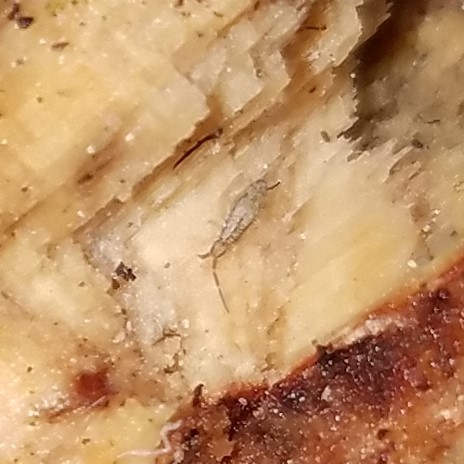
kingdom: Animalia
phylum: Arthropoda
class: Collembola
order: Entomobryomorpha
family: Entomobryidae
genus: Homidia
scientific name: Homidia socia
